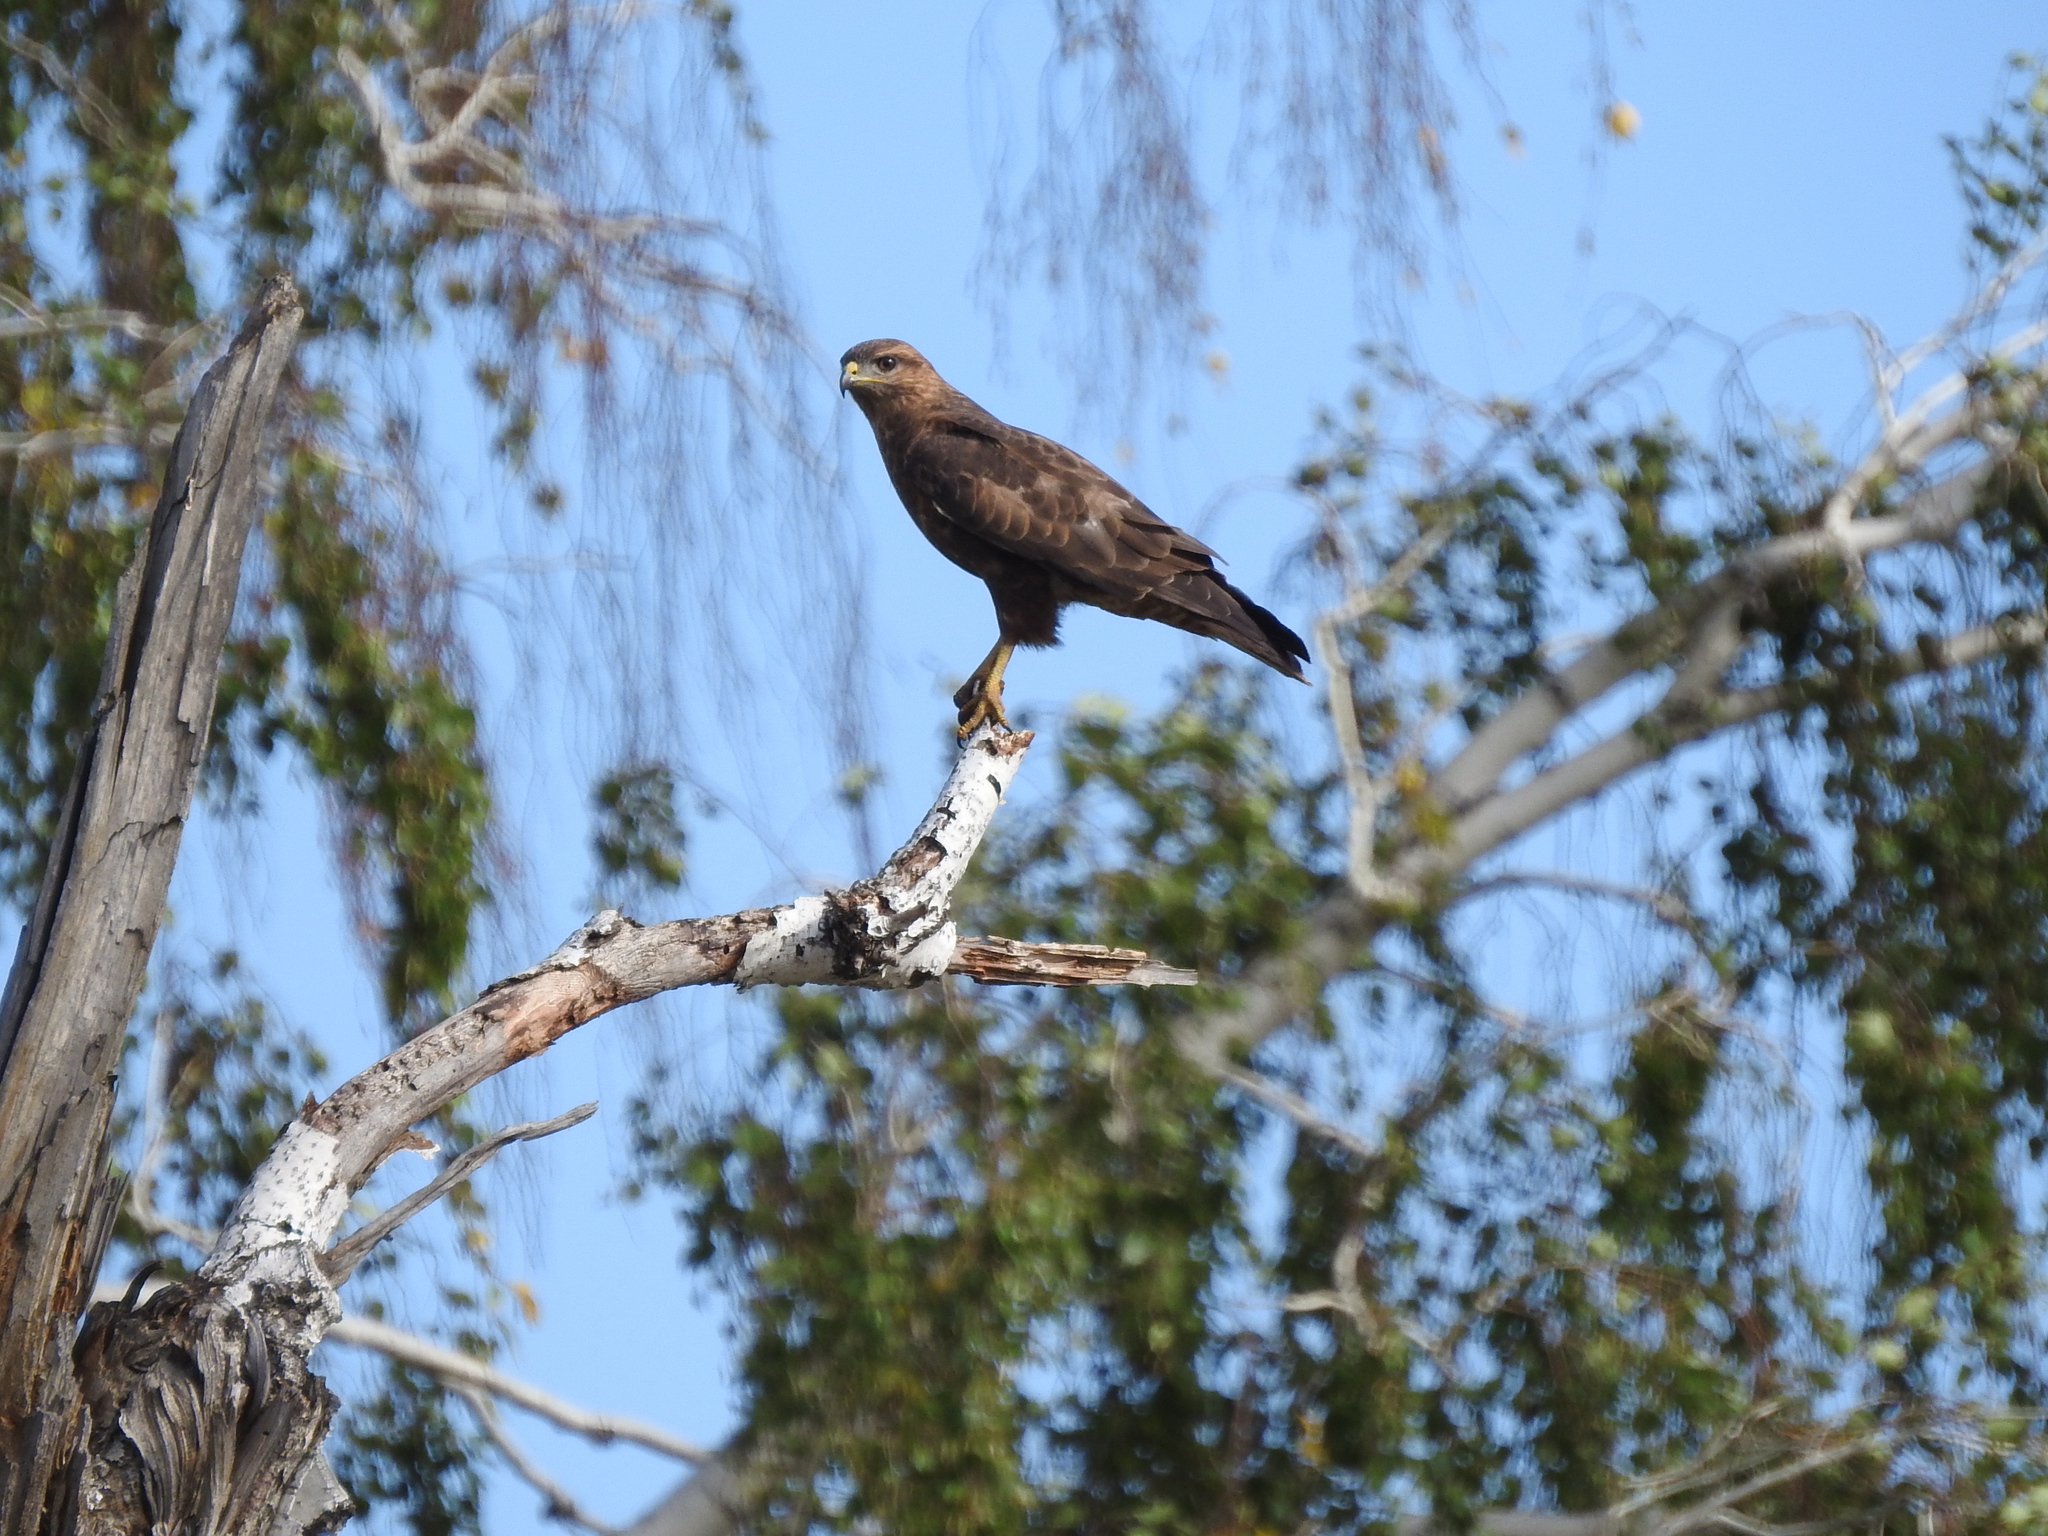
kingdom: Animalia
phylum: Chordata
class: Aves
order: Accipitriformes
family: Accipitridae
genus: Buteo
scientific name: Buteo buteo
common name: Common buzzard
